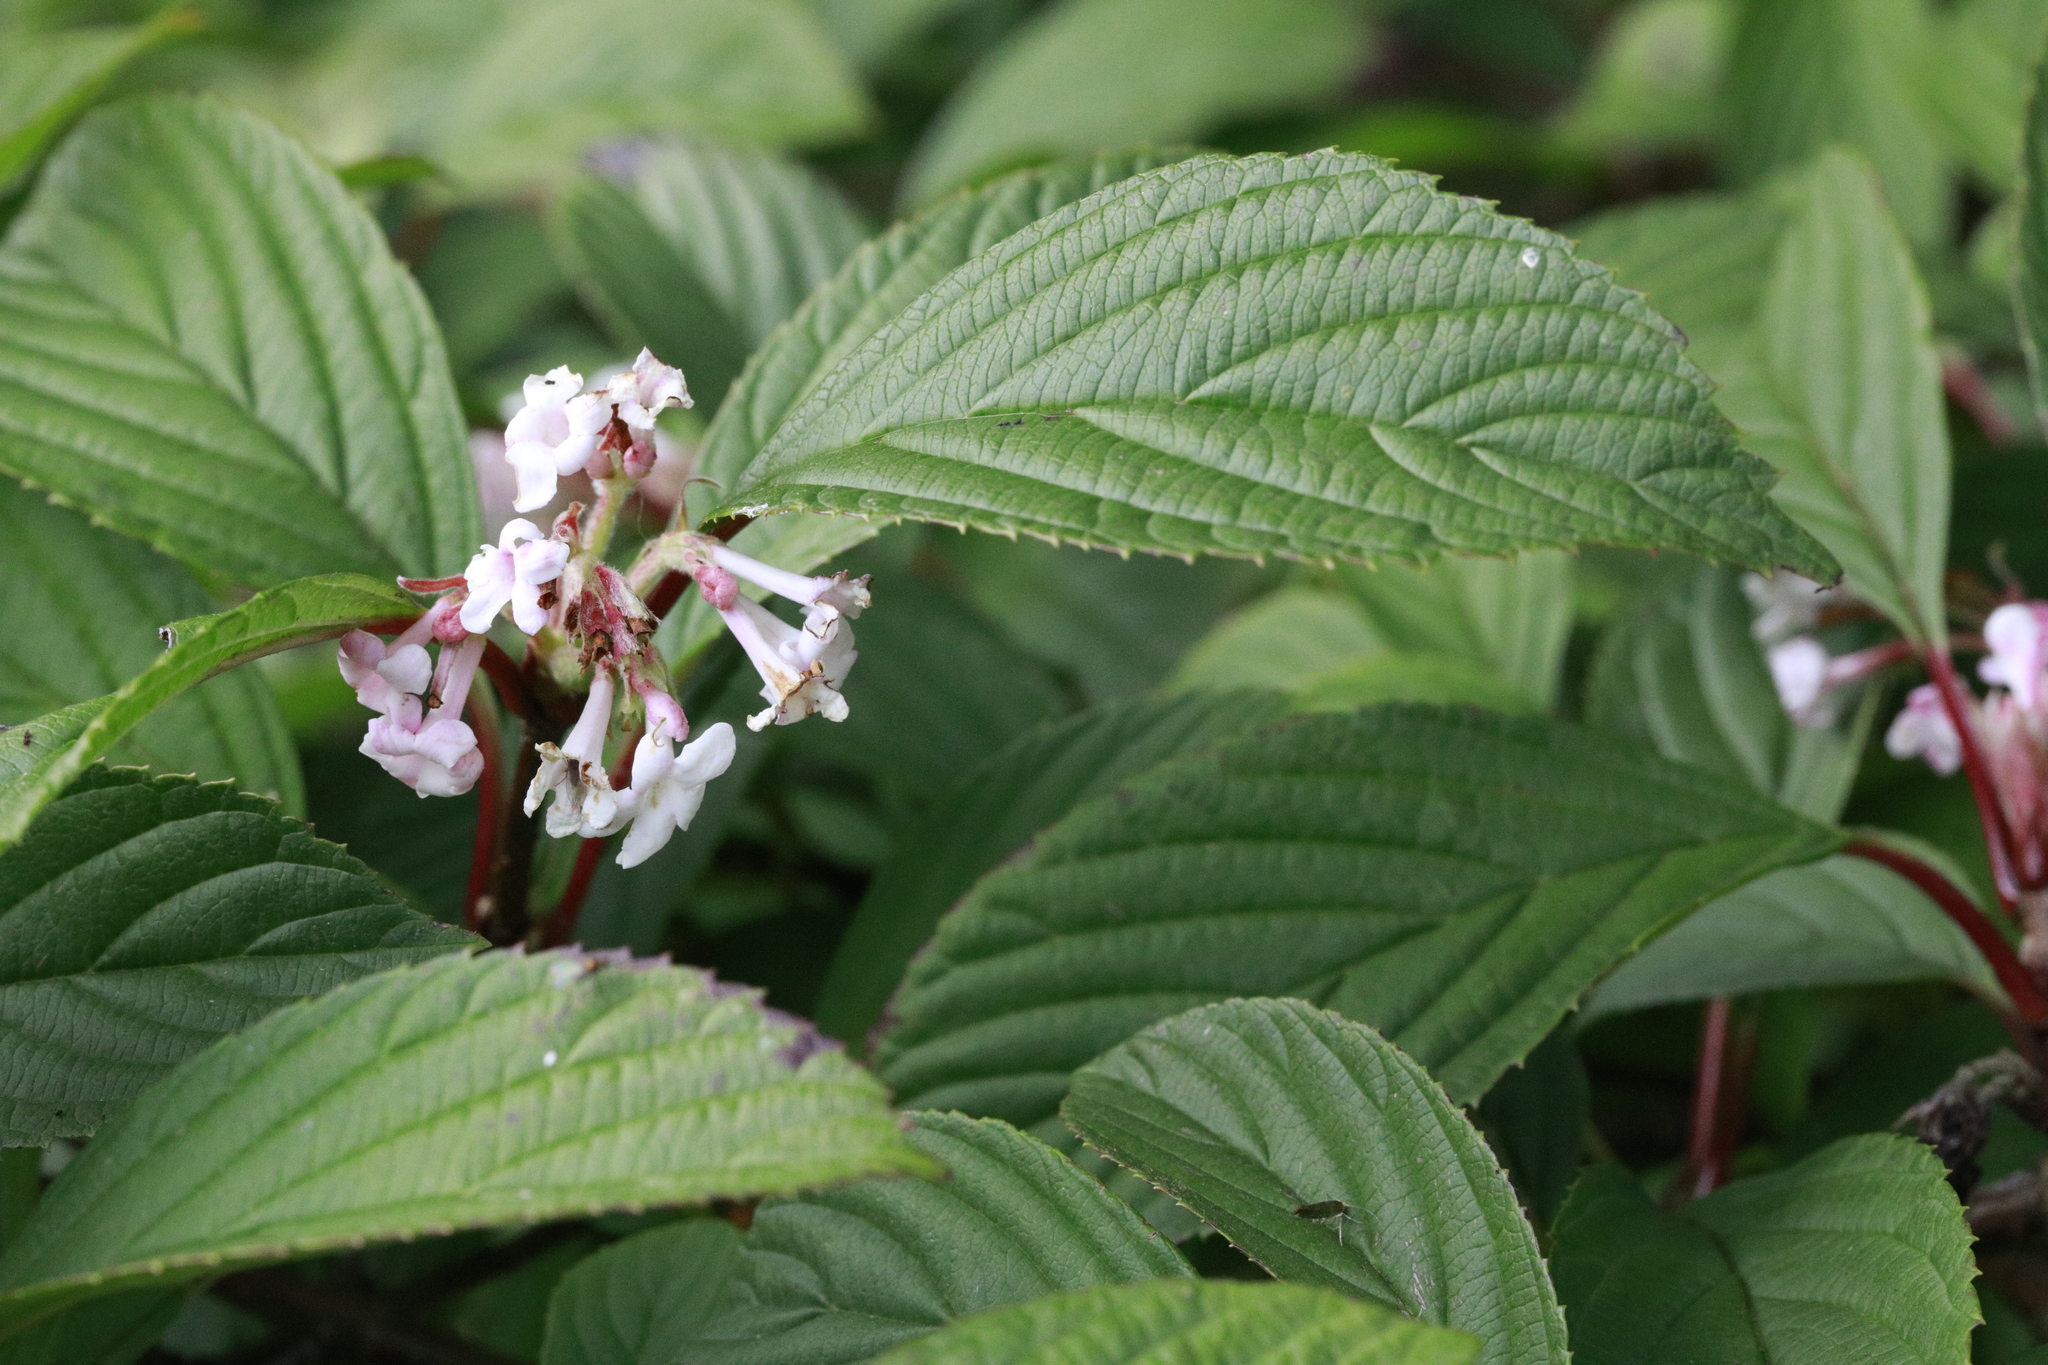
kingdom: Plantae
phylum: Tracheophyta
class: Magnoliopsida
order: Dipsacales
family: Viburnaceae
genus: Viburnum
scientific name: Viburnum bodnantense
